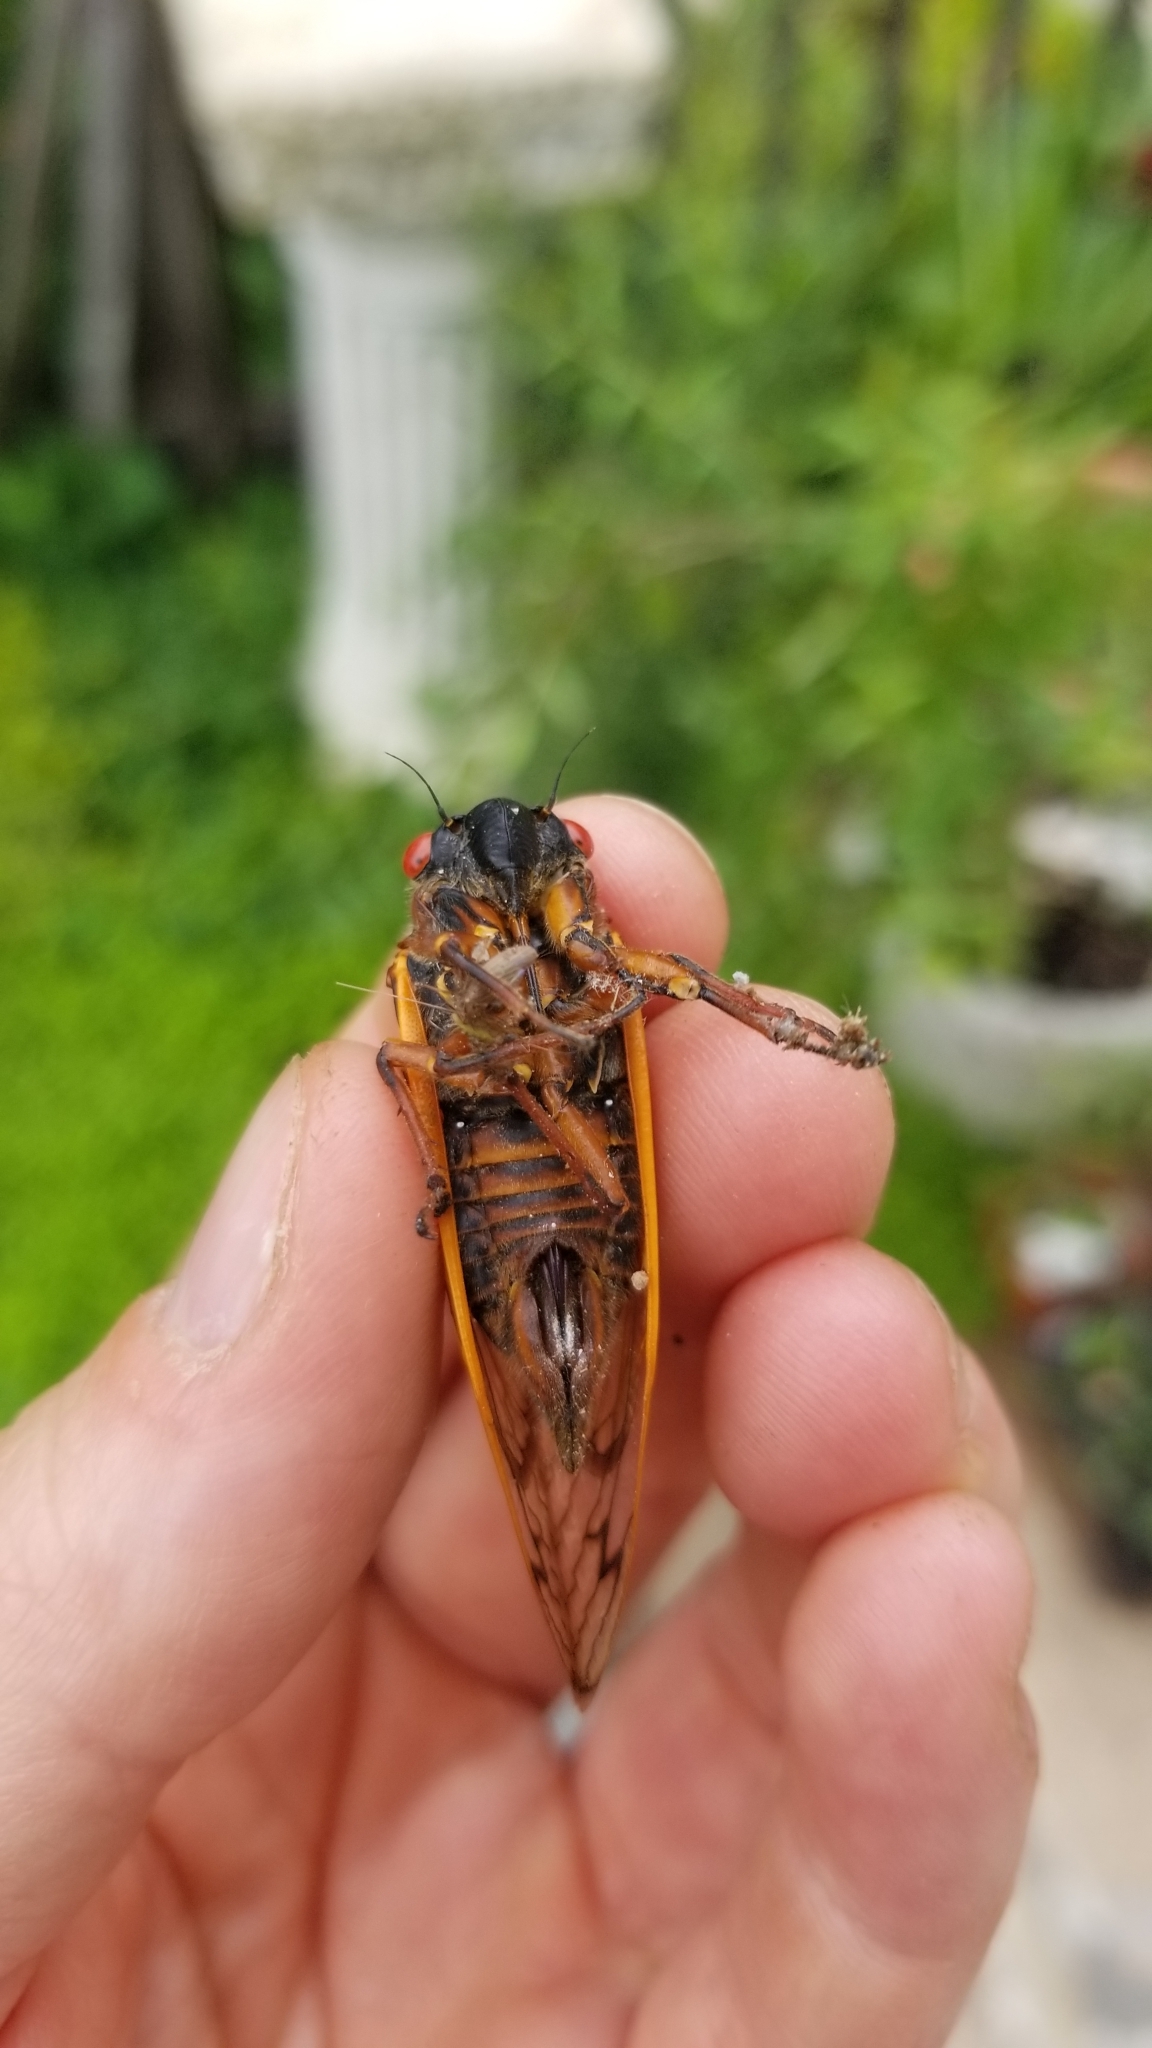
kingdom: Animalia
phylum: Arthropoda
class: Insecta
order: Hemiptera
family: Cicadidae
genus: Magicicada
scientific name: Magicicada septendecim
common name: Periodical cicada
